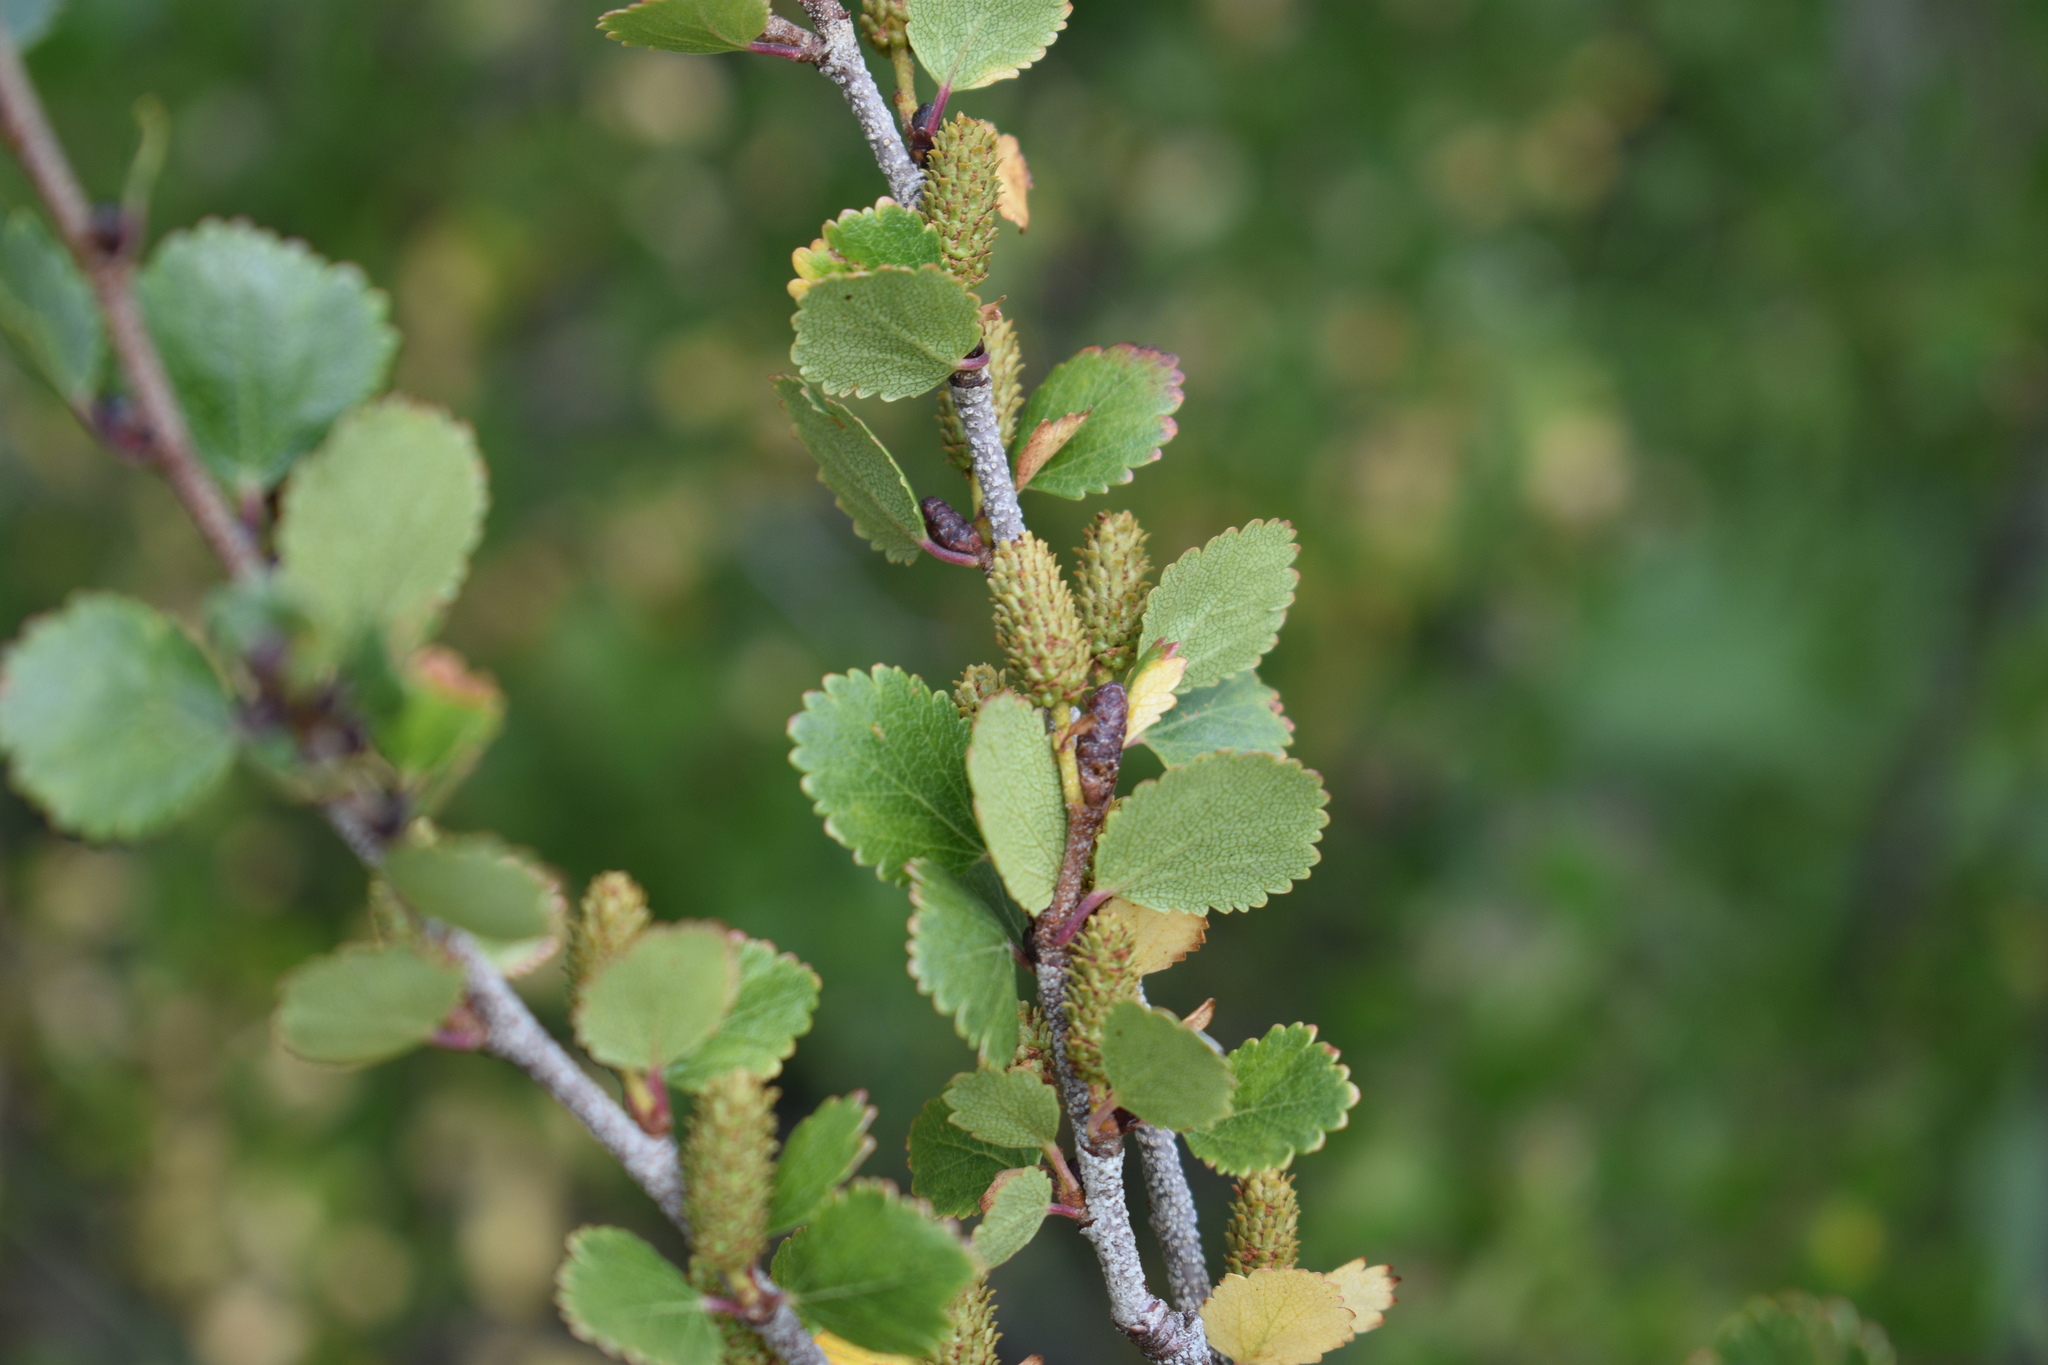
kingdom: Plantae
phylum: Tracheophyta
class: Magnoliopsida
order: Fagales
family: Betulaceae
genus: Betula
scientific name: Betula glandulosa
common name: Dwarf birch
